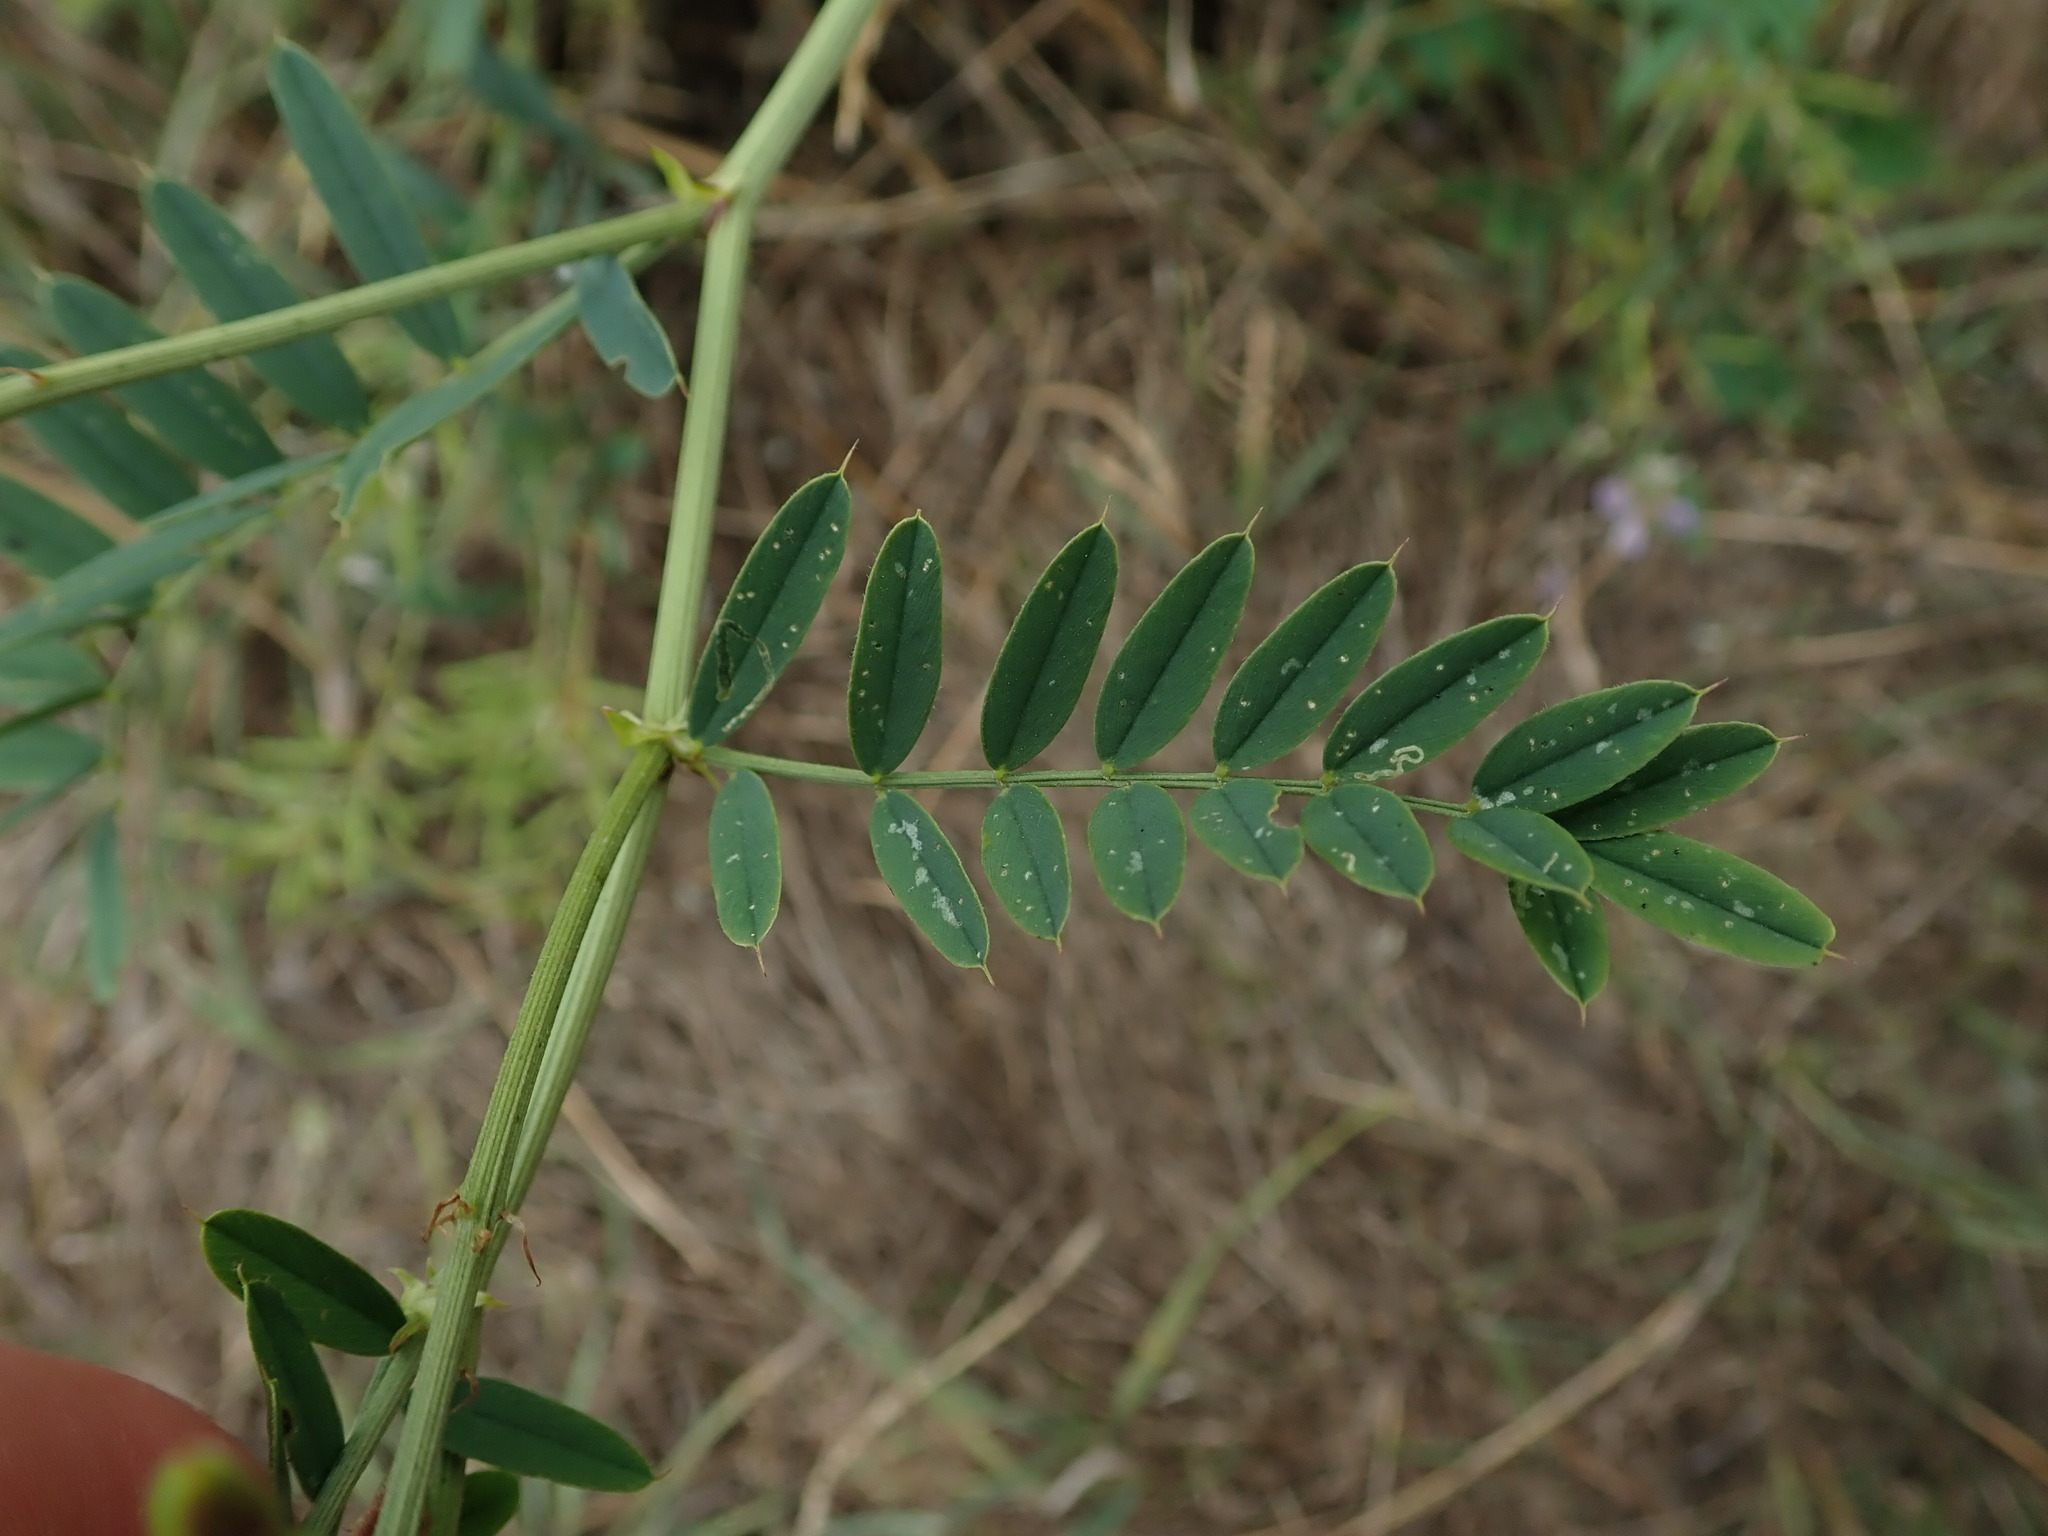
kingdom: Plantae
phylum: Tracheophyta
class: Magnoliopsida
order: Fabales
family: Fabaceae
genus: Galega
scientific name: Galega officinalis
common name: Goat's-rue
